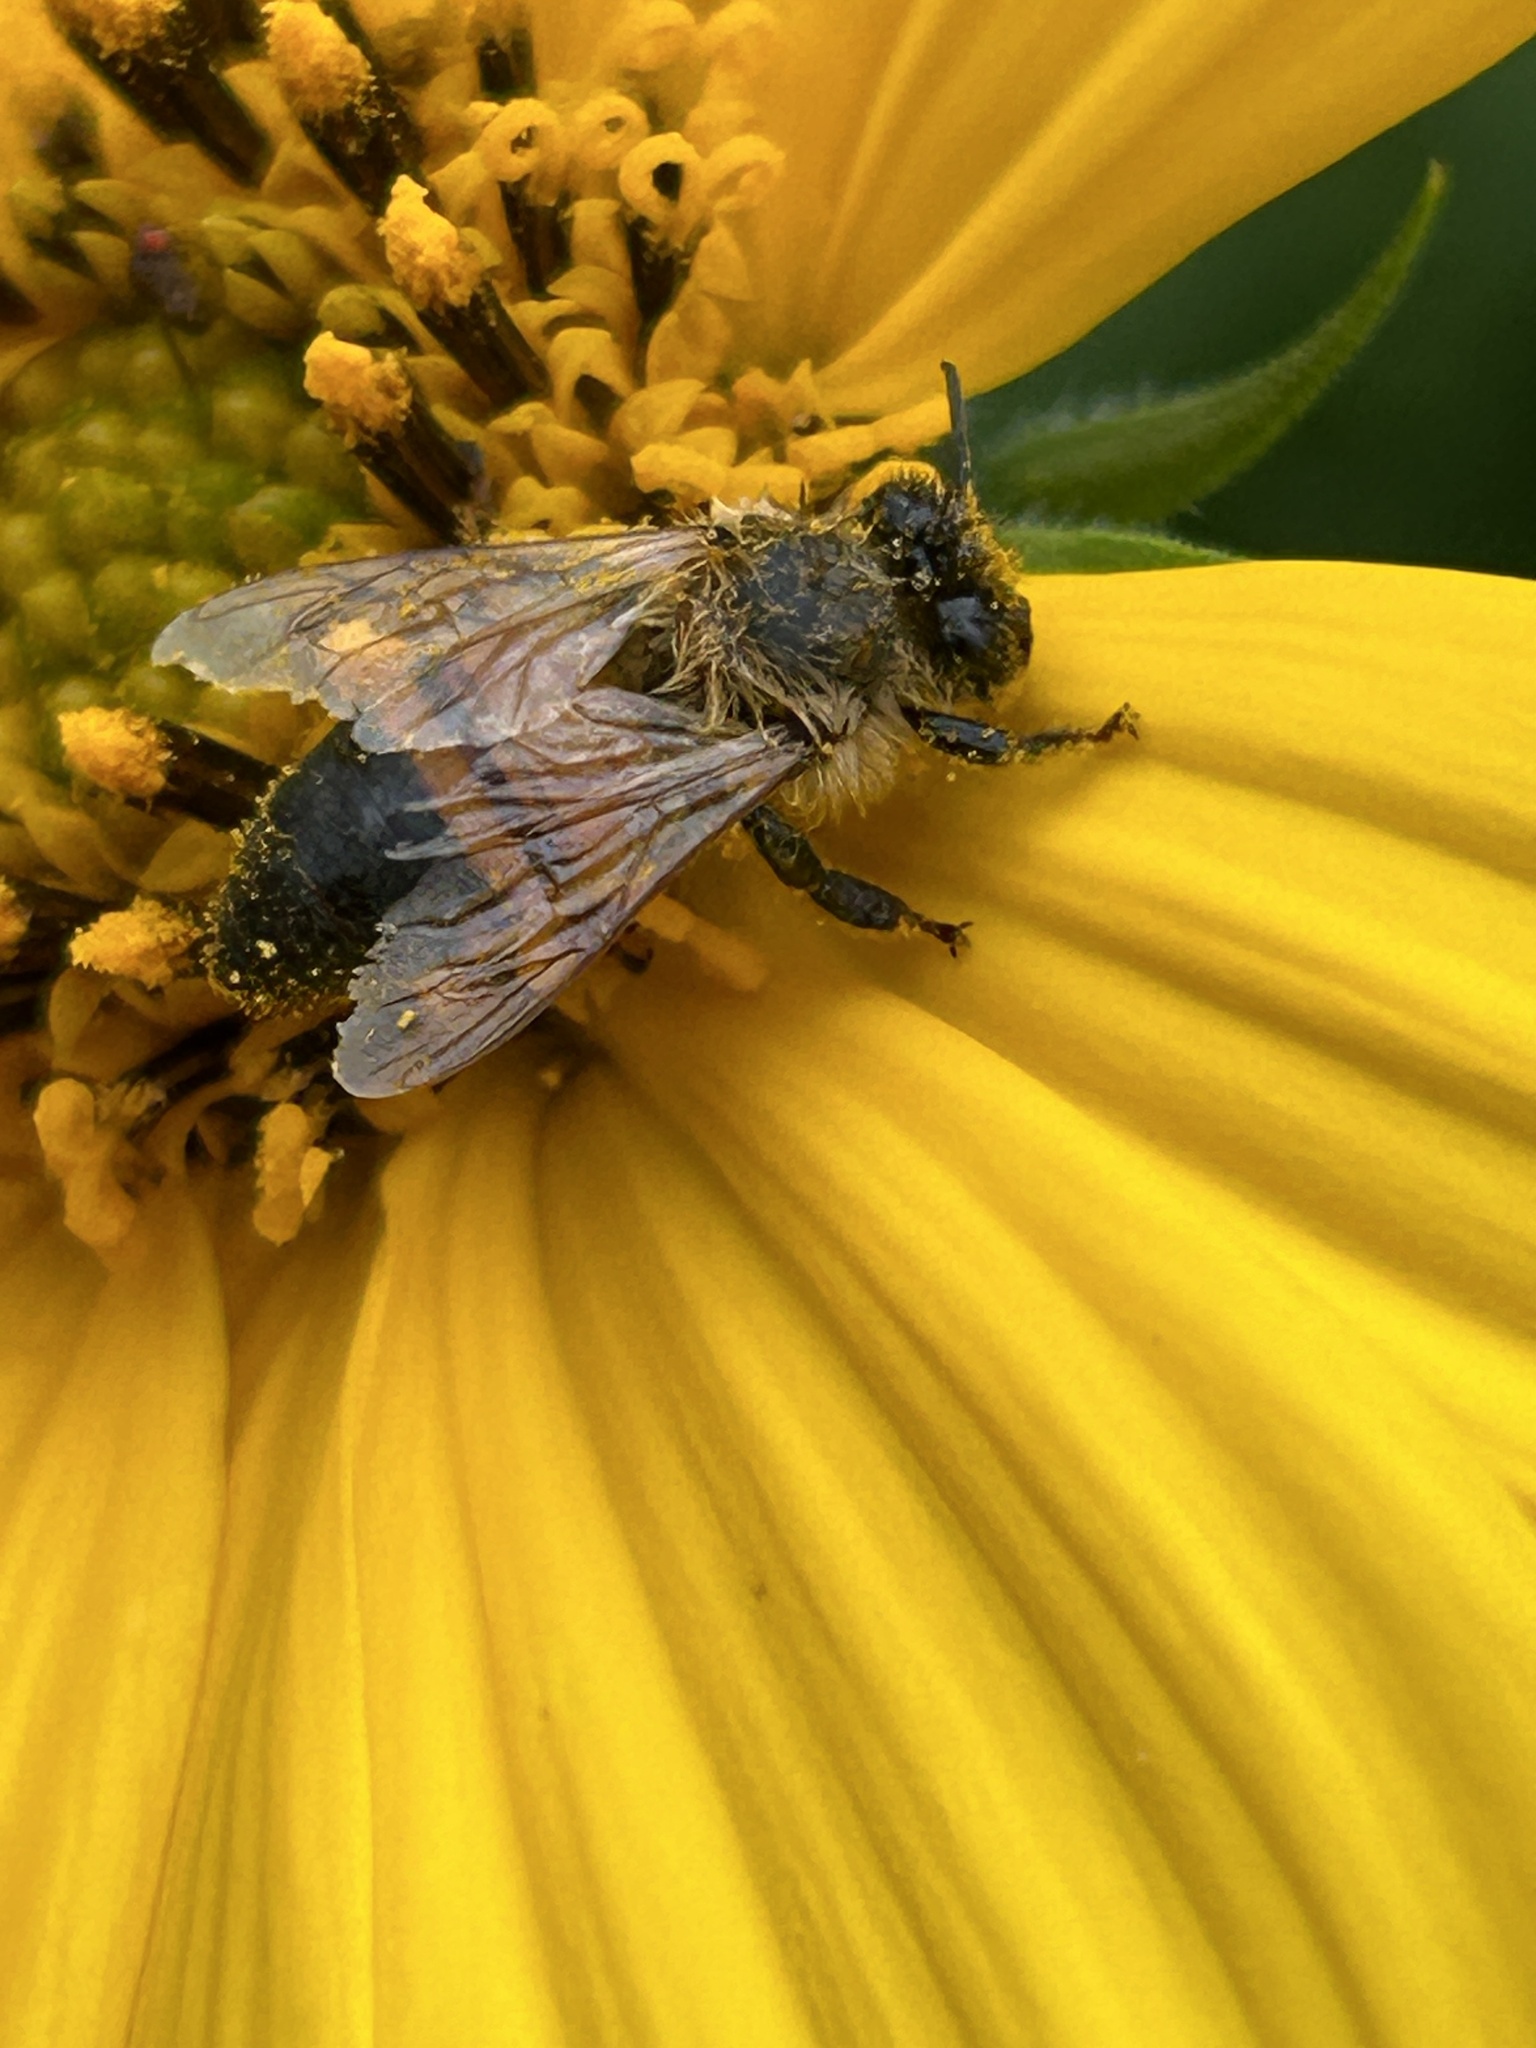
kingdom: Animalia
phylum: Arthropoda
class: Insecta
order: Hymenoptera
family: Apidae
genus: Apis
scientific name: Apis mellifera
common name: Honey bee
